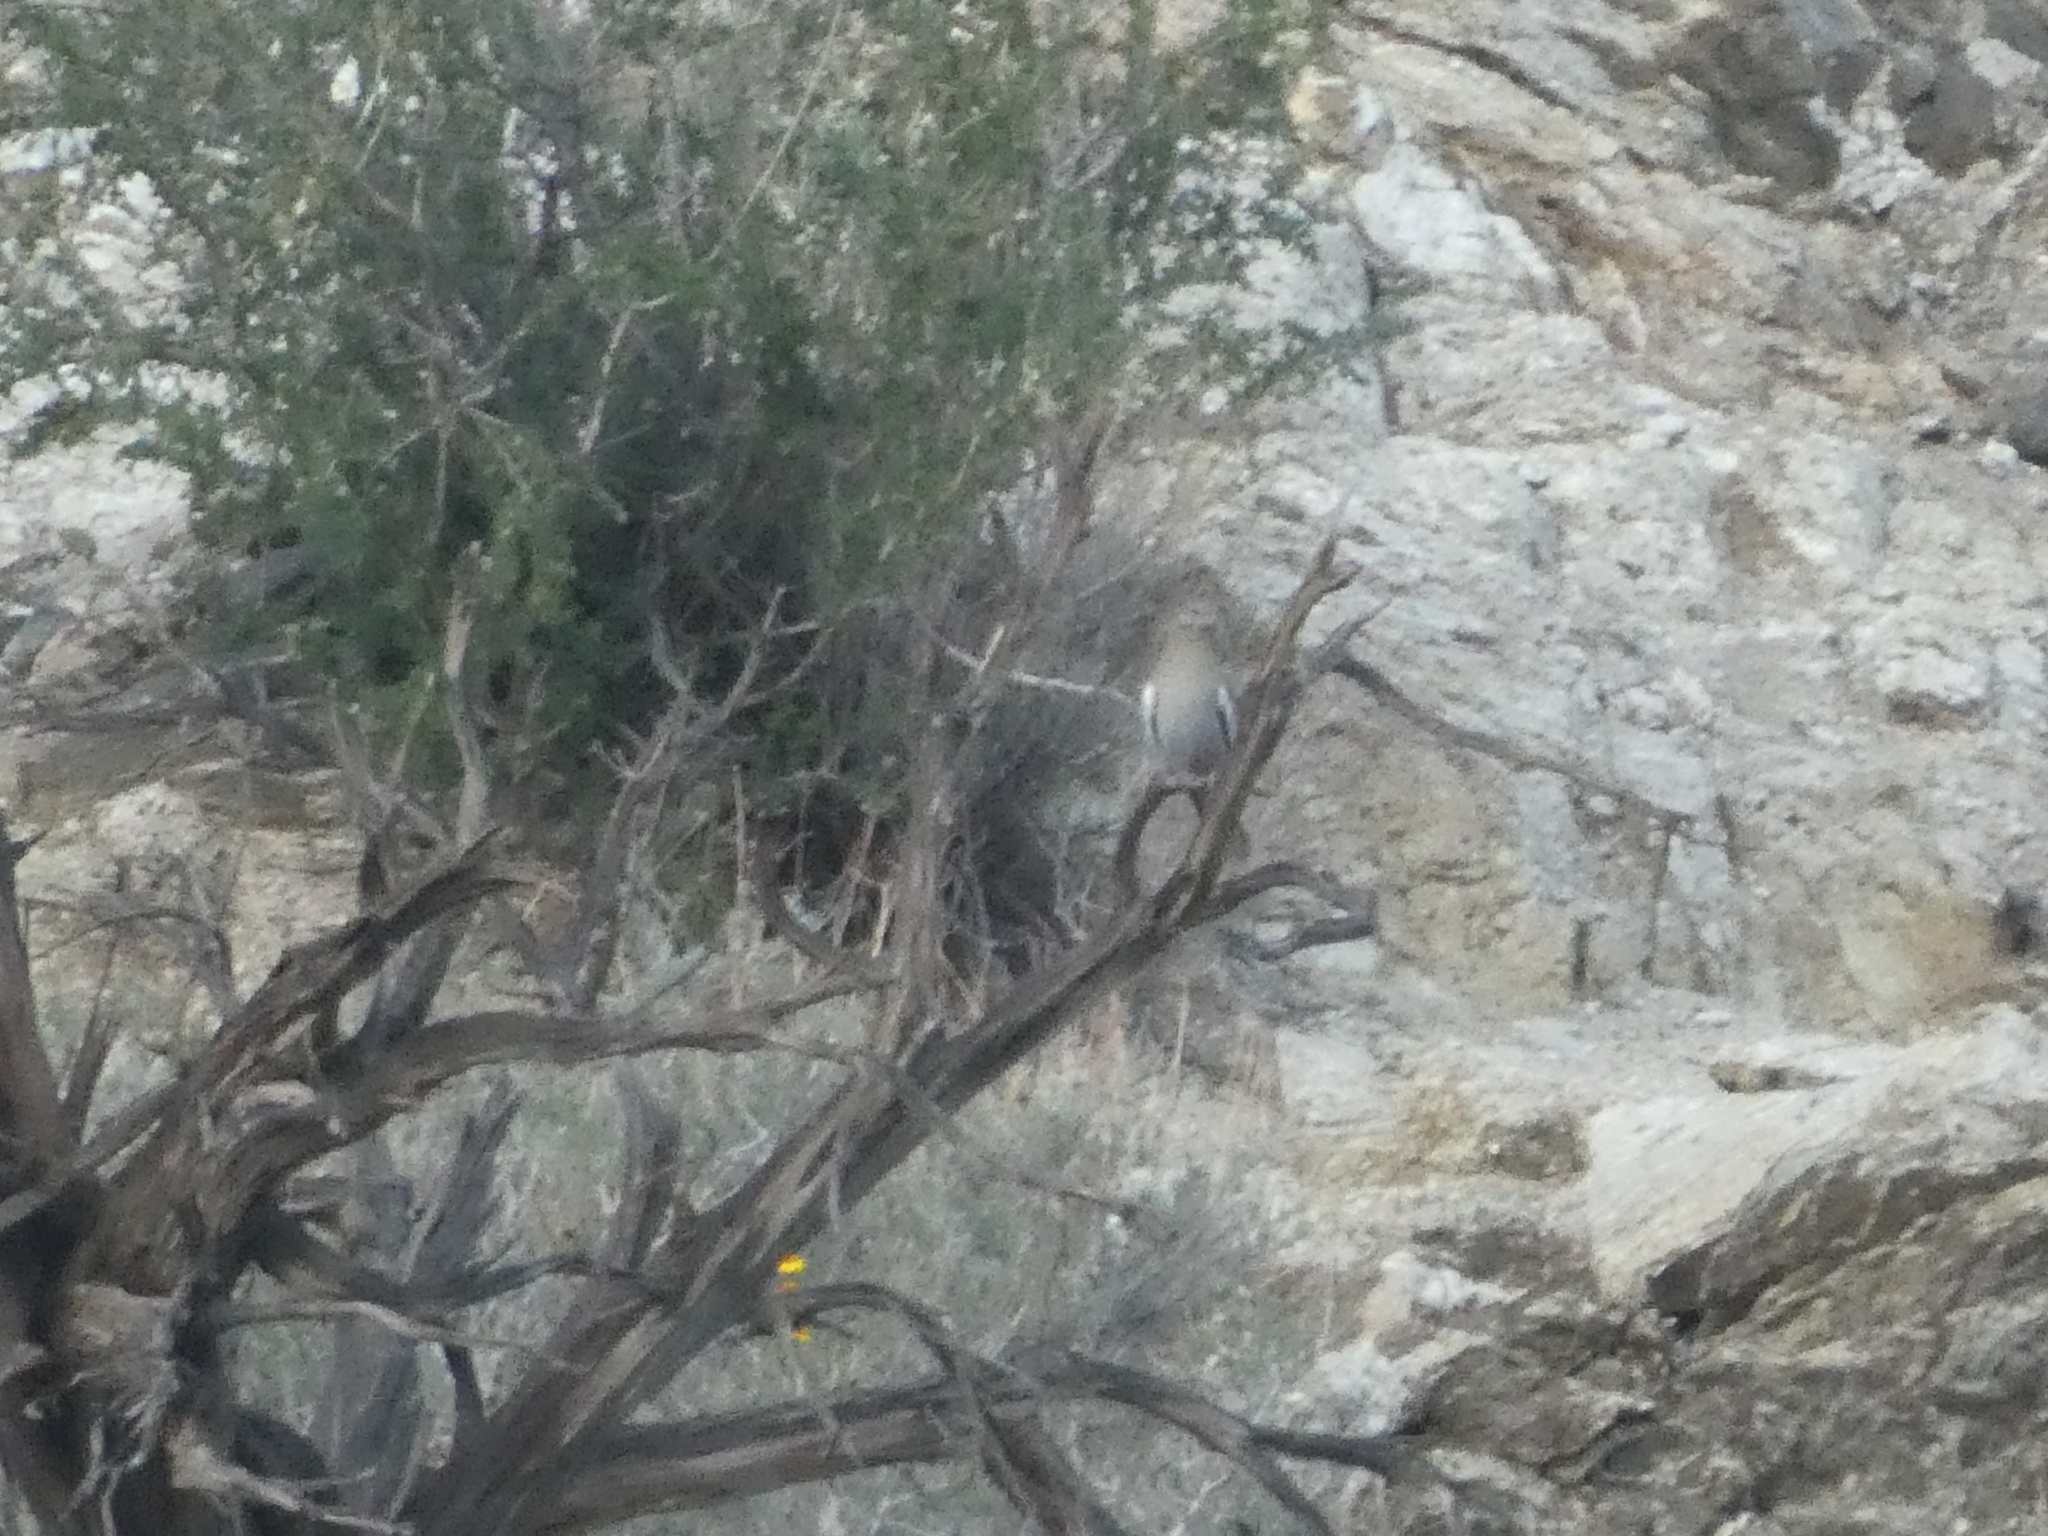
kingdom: Animalia
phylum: Chordata
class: Aves
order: Columbiformes
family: Columbidae
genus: Zenaida
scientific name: Zenaida asiatica
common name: White-winged dove
